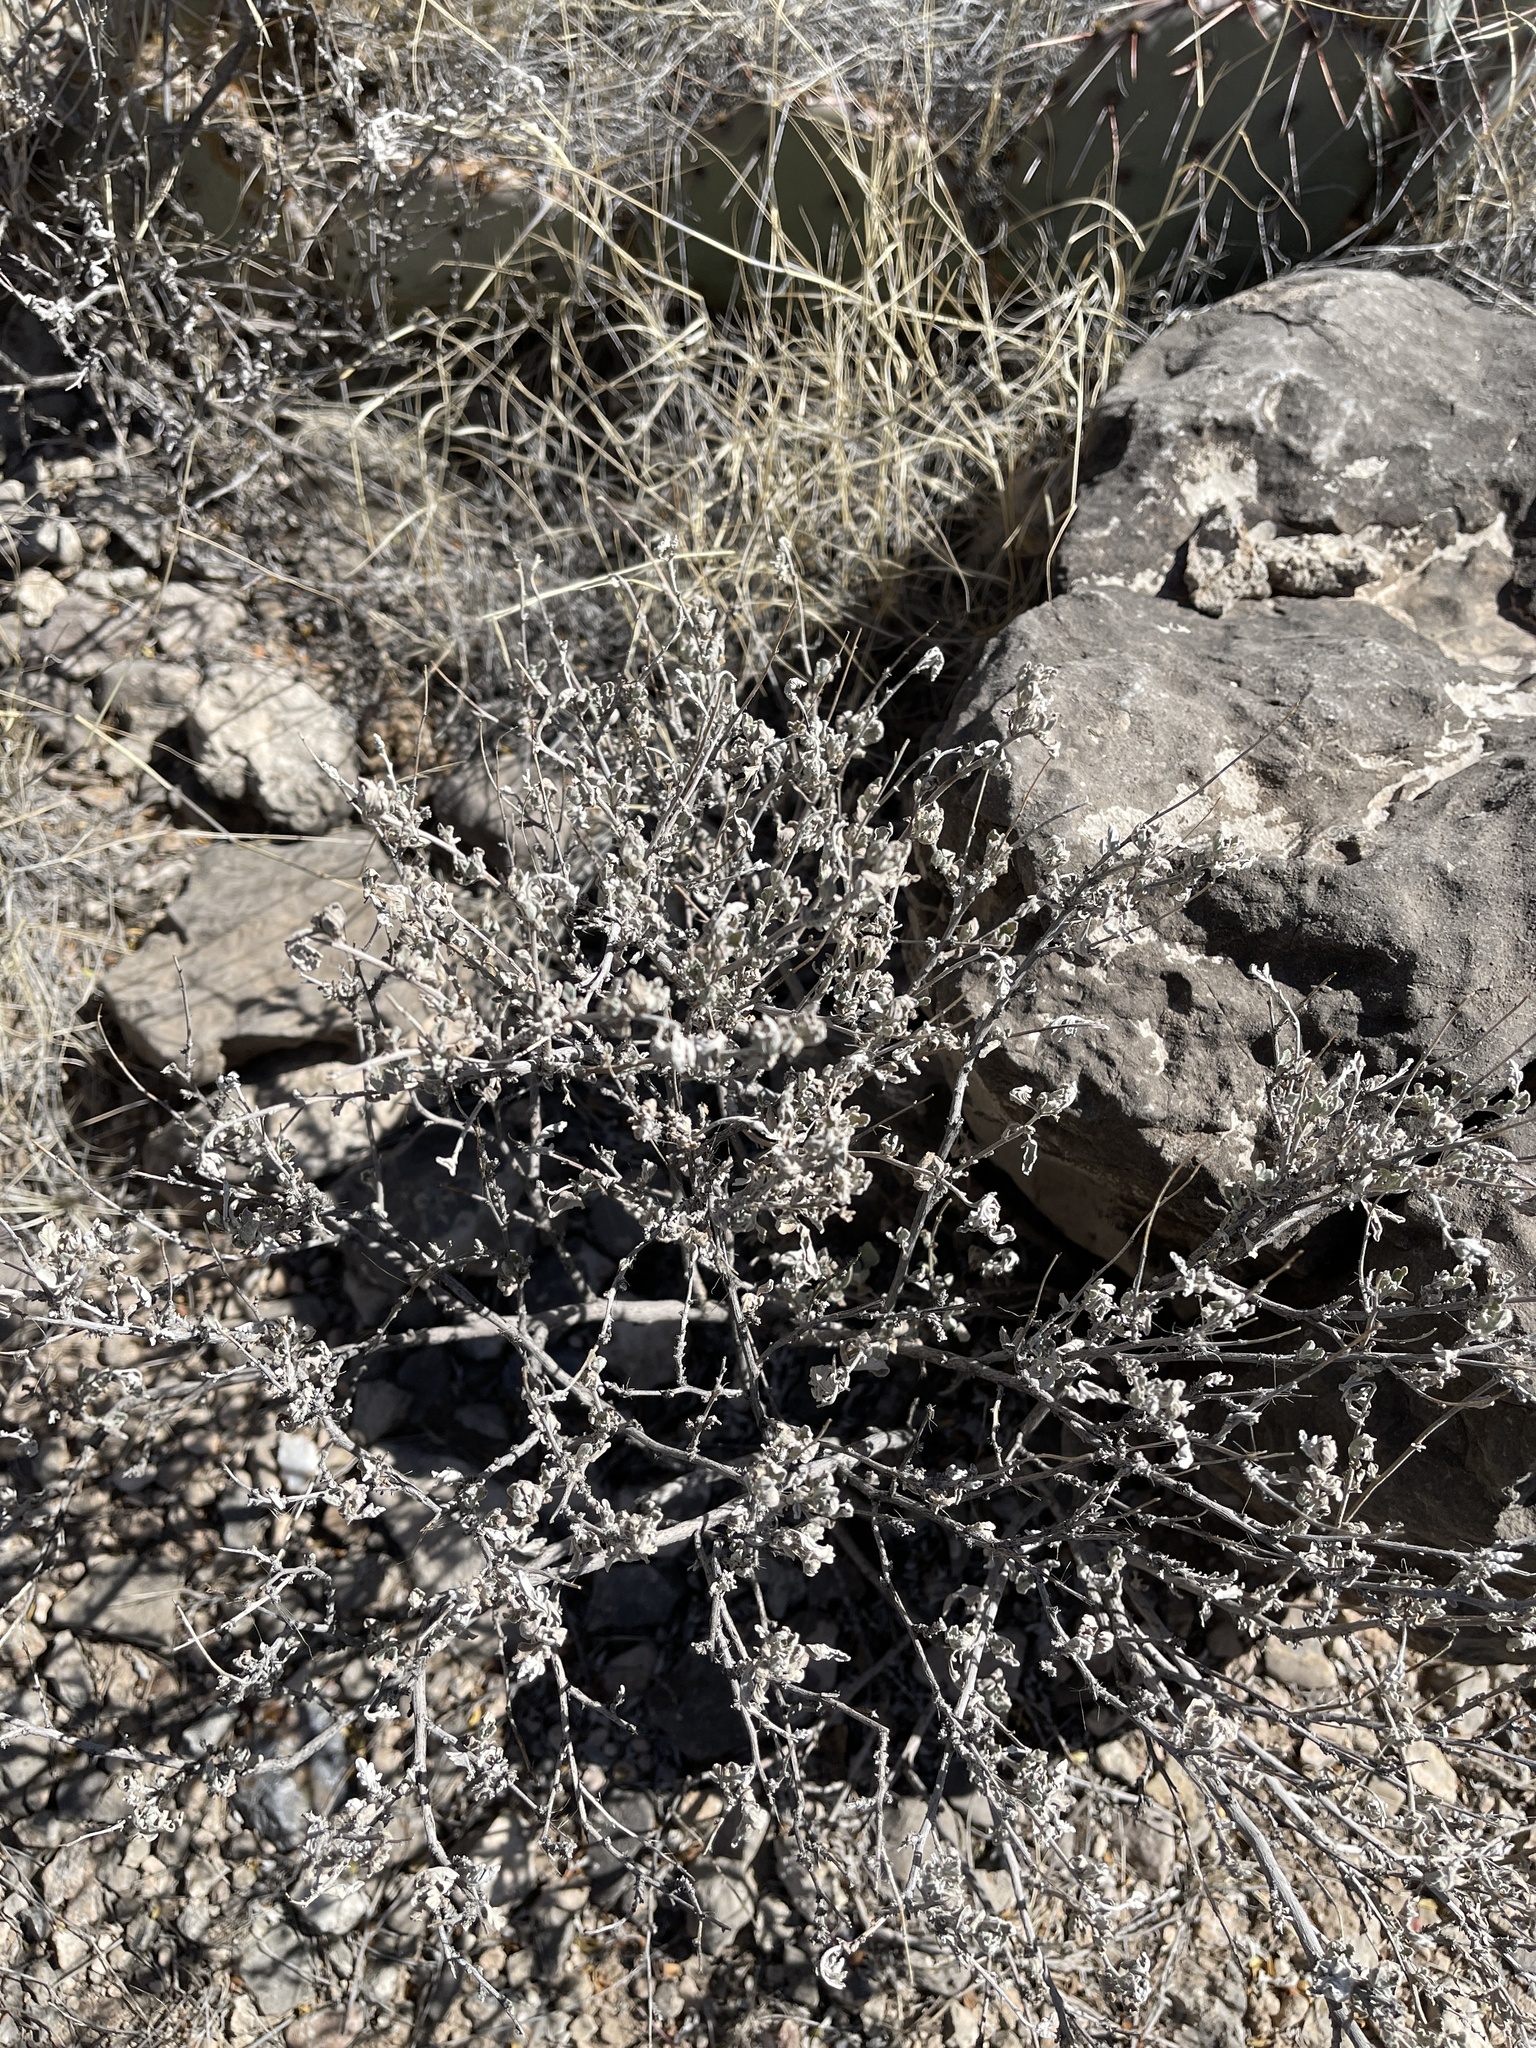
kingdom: Plantae
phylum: Tracheophyta
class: Magnoliopsida
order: Asterales
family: Asteraceae
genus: Parthenium
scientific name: Parthenium incanum
